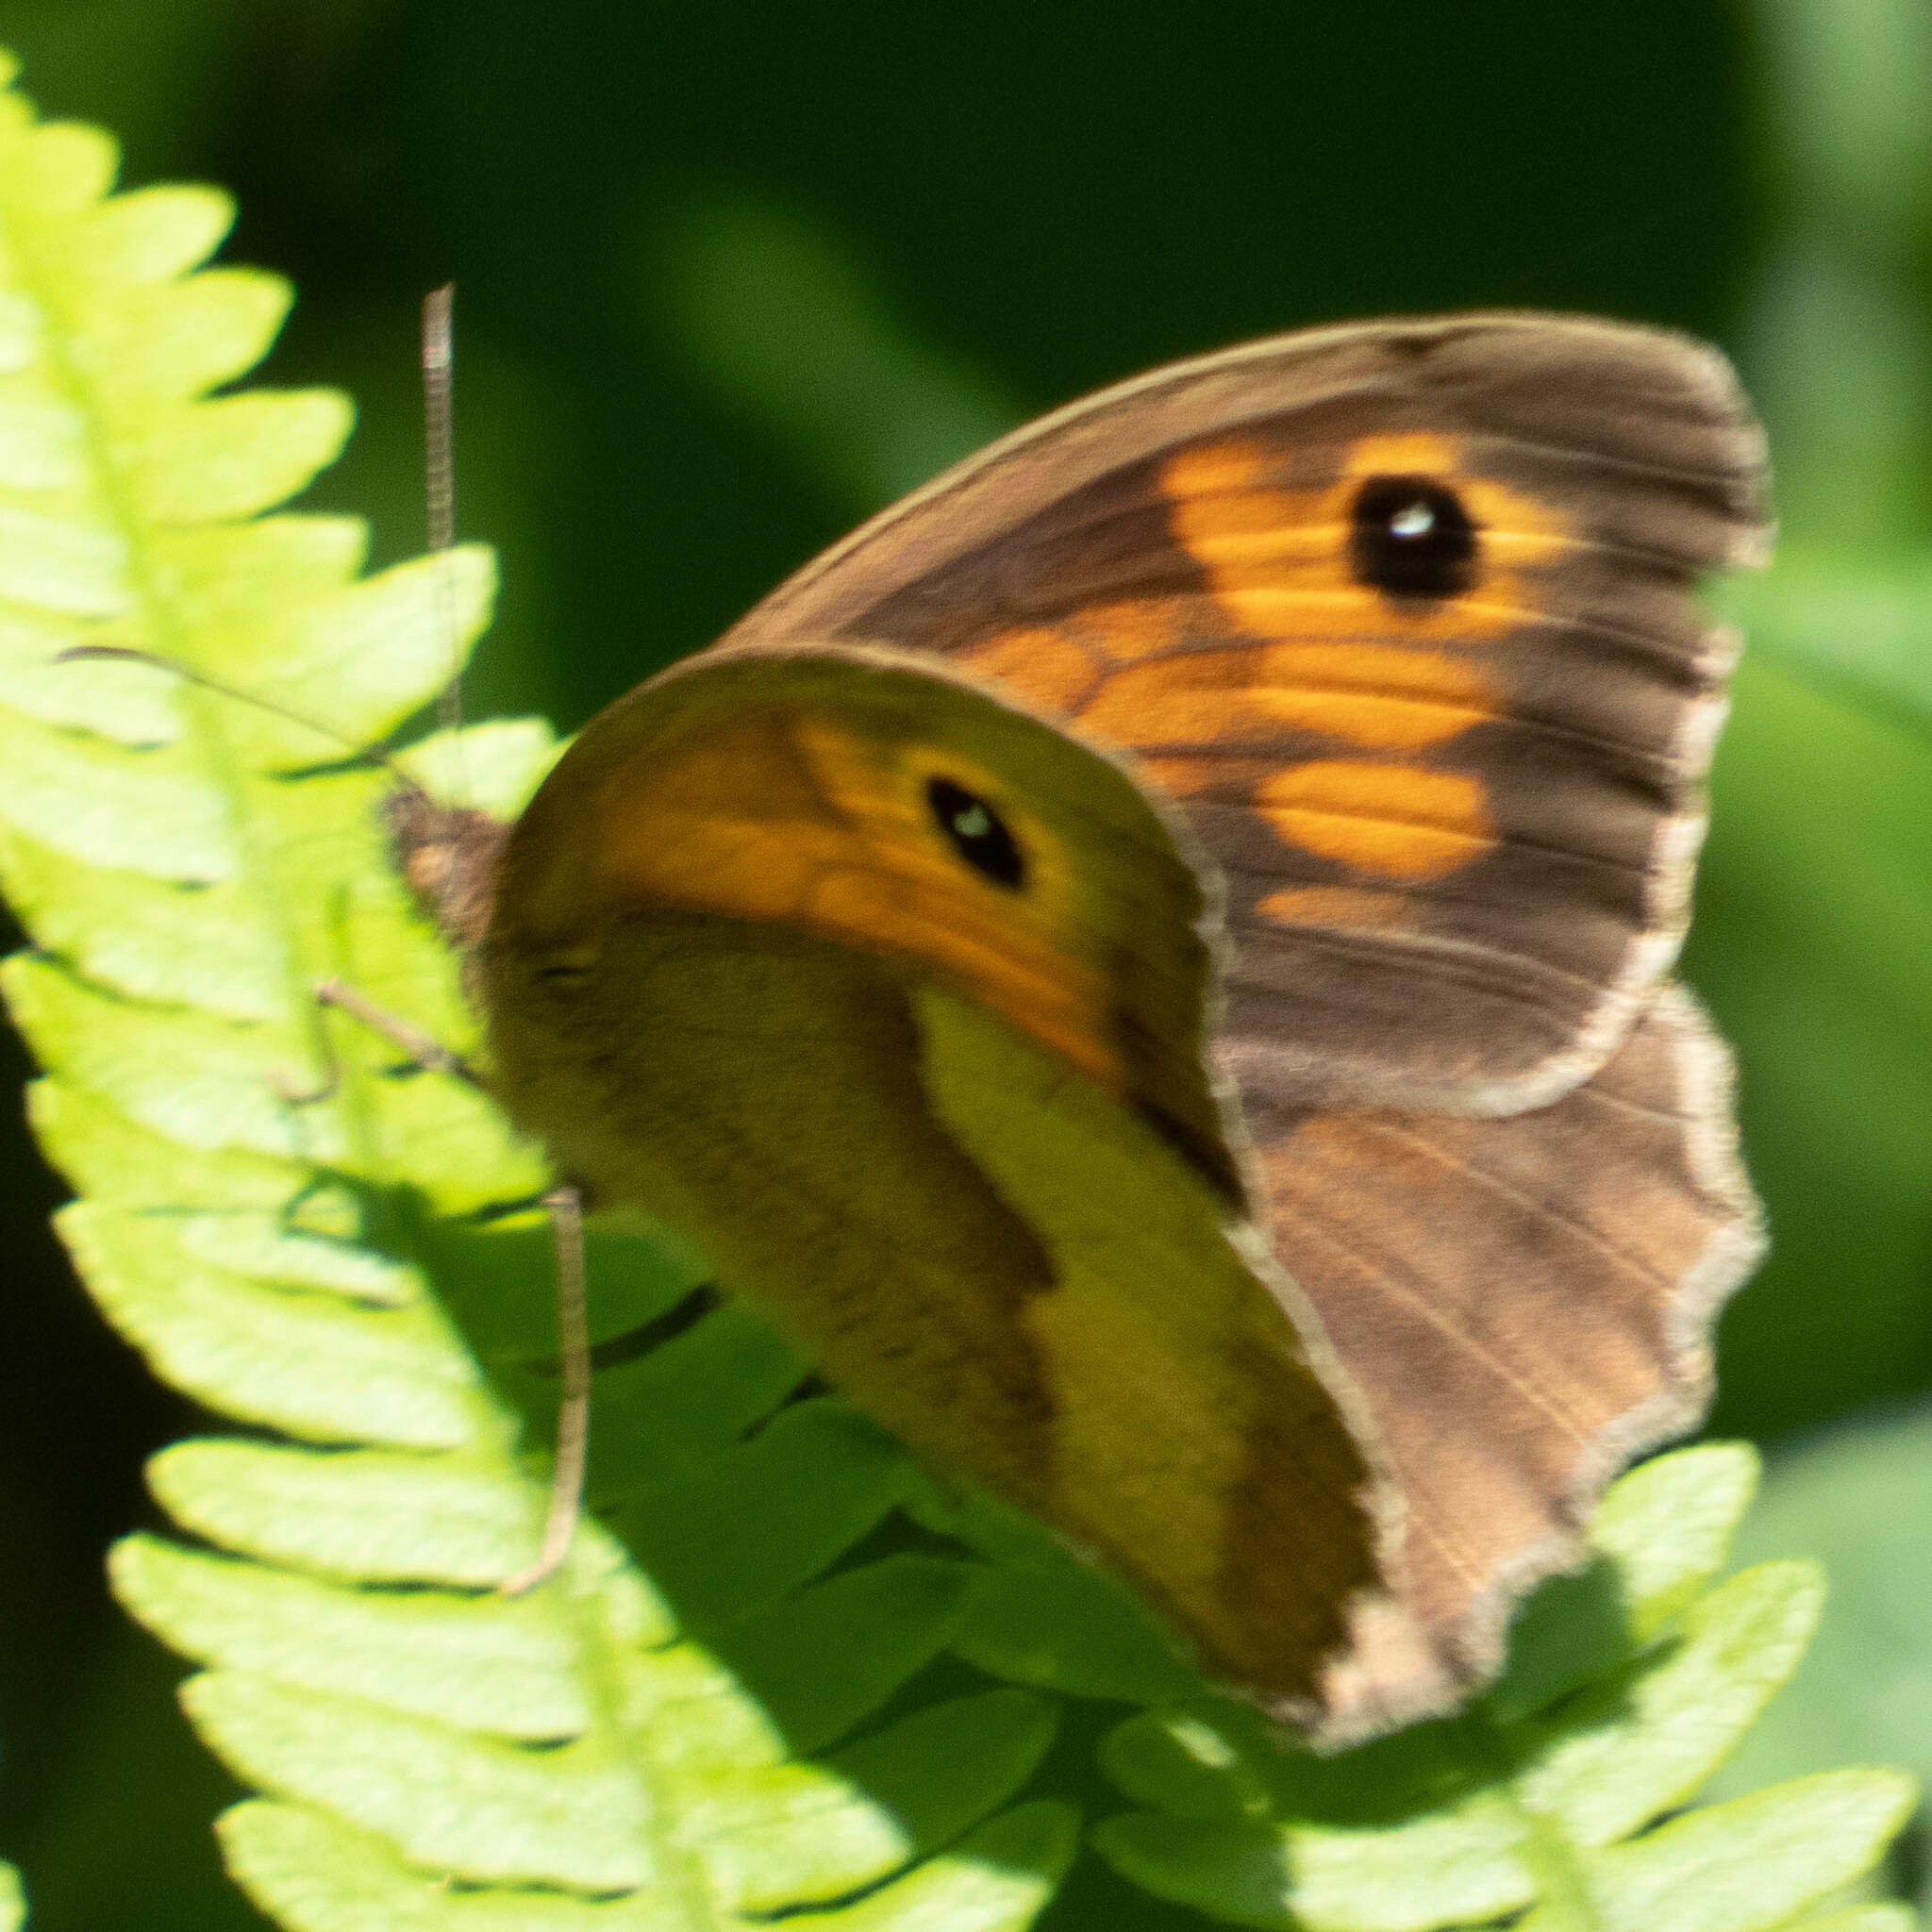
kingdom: Animalia
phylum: Arthropoda
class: Insecta
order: Lepidoptera
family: Nymphalidae
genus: Maniola
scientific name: Maniola jurtina
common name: Meadow brown
